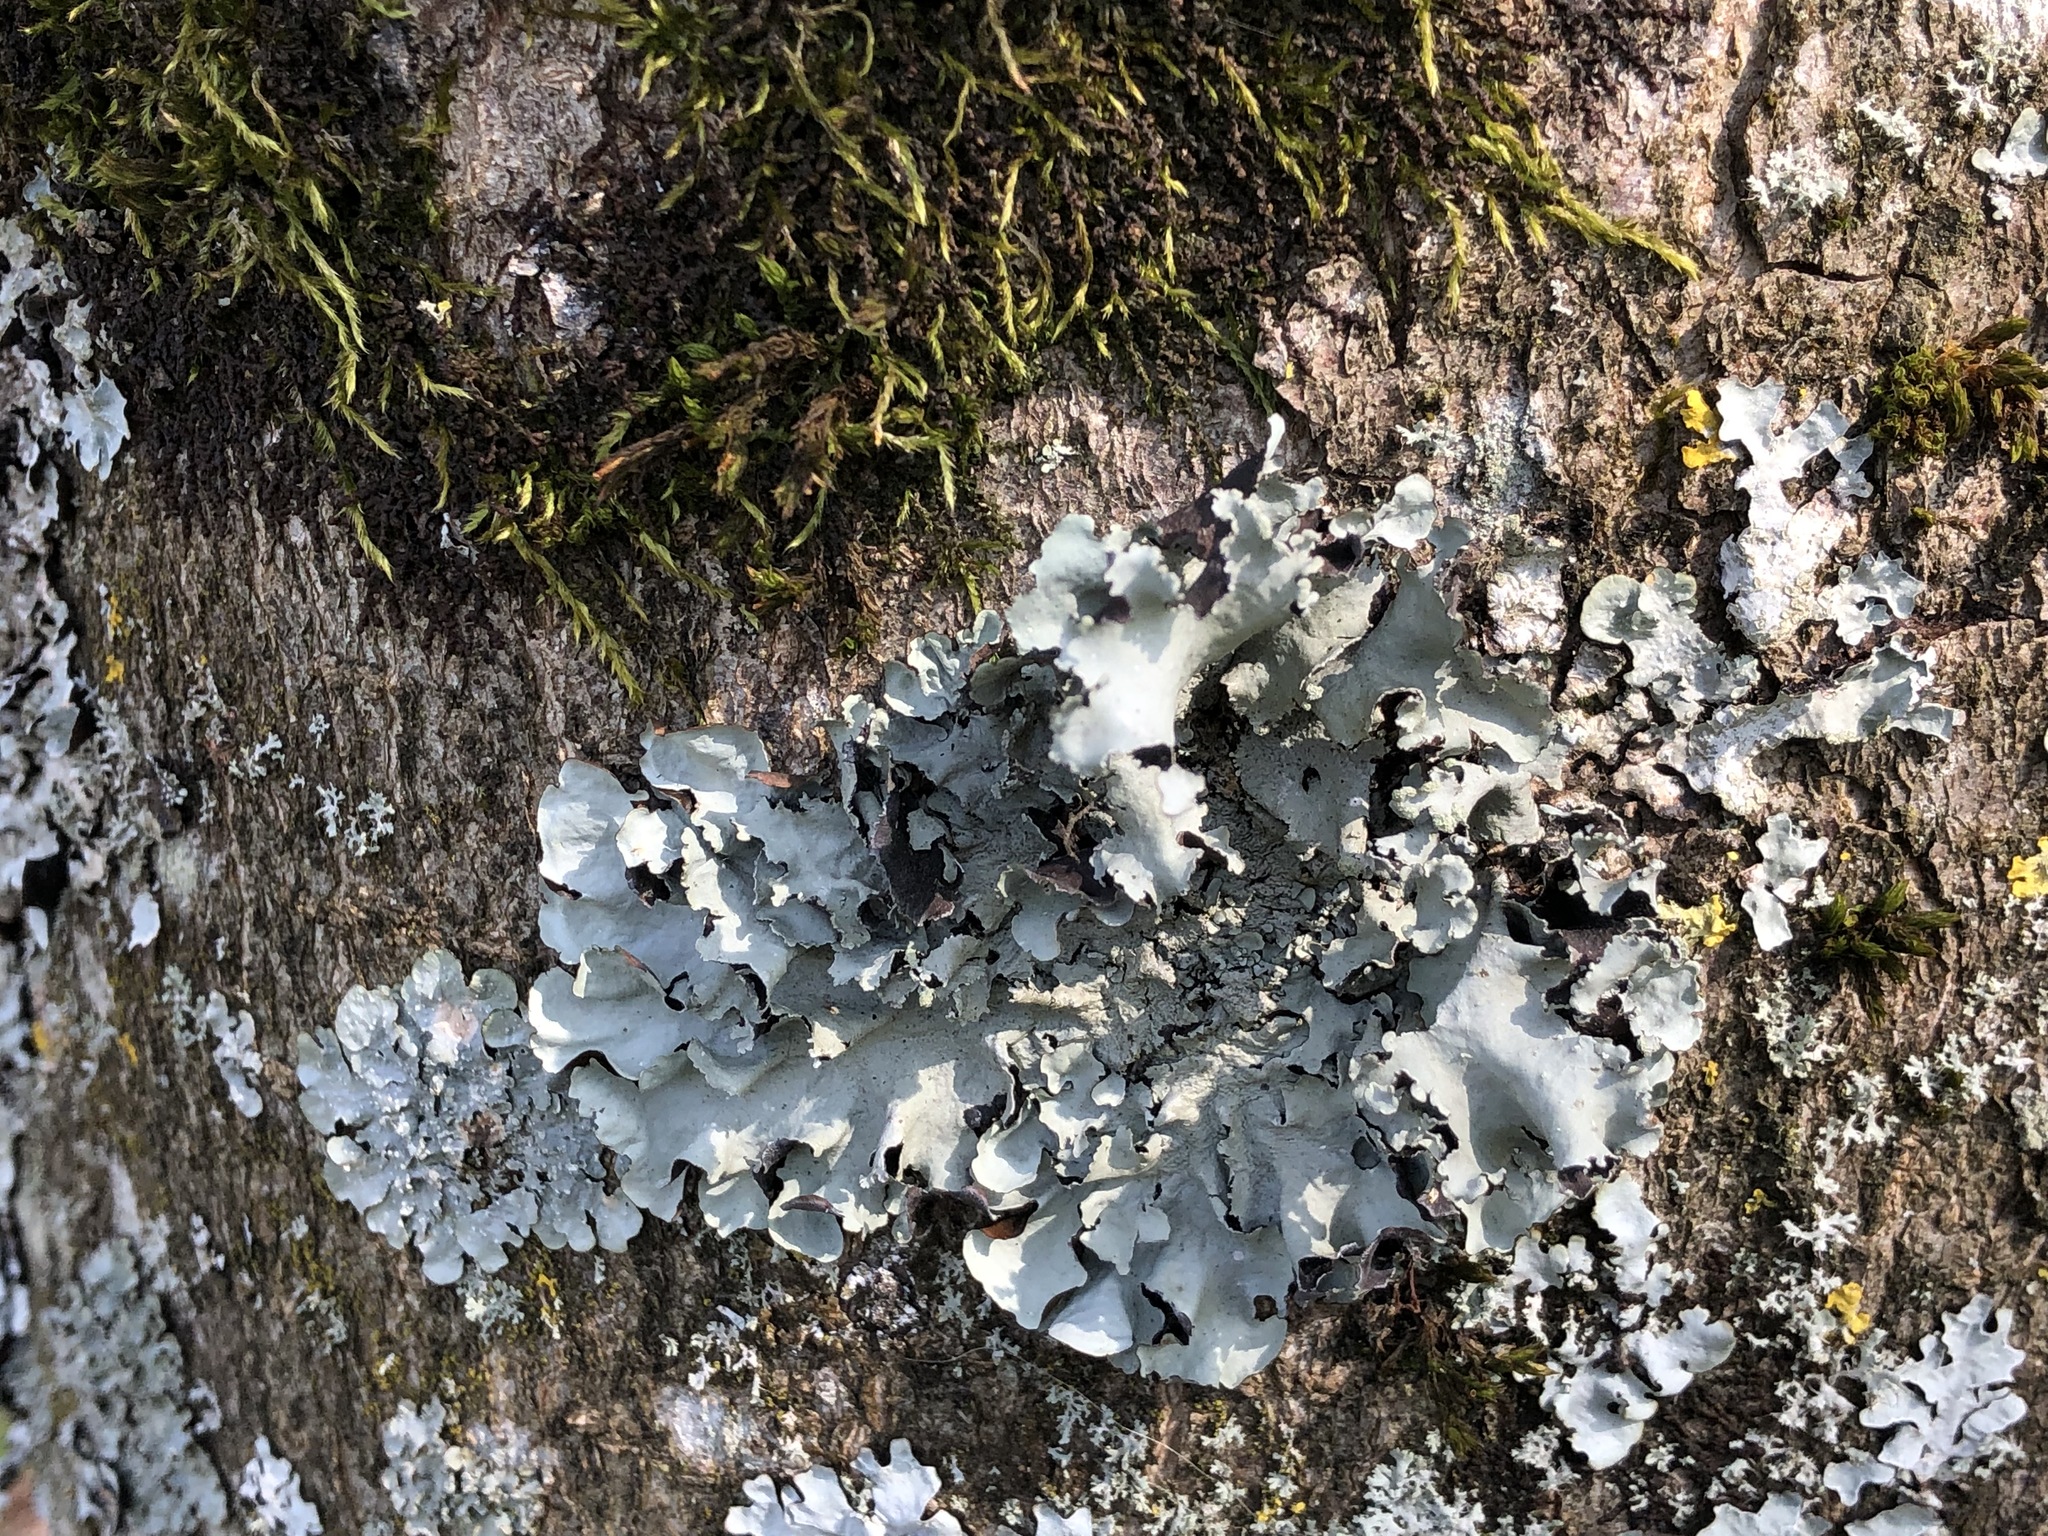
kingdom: Fungi
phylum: Ascomycota
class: Lecanoromycetes
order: Lecanorales
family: Parmeliaceae
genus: Parmelina
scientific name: Parmelina tiliacea
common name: Linden shield lichen
